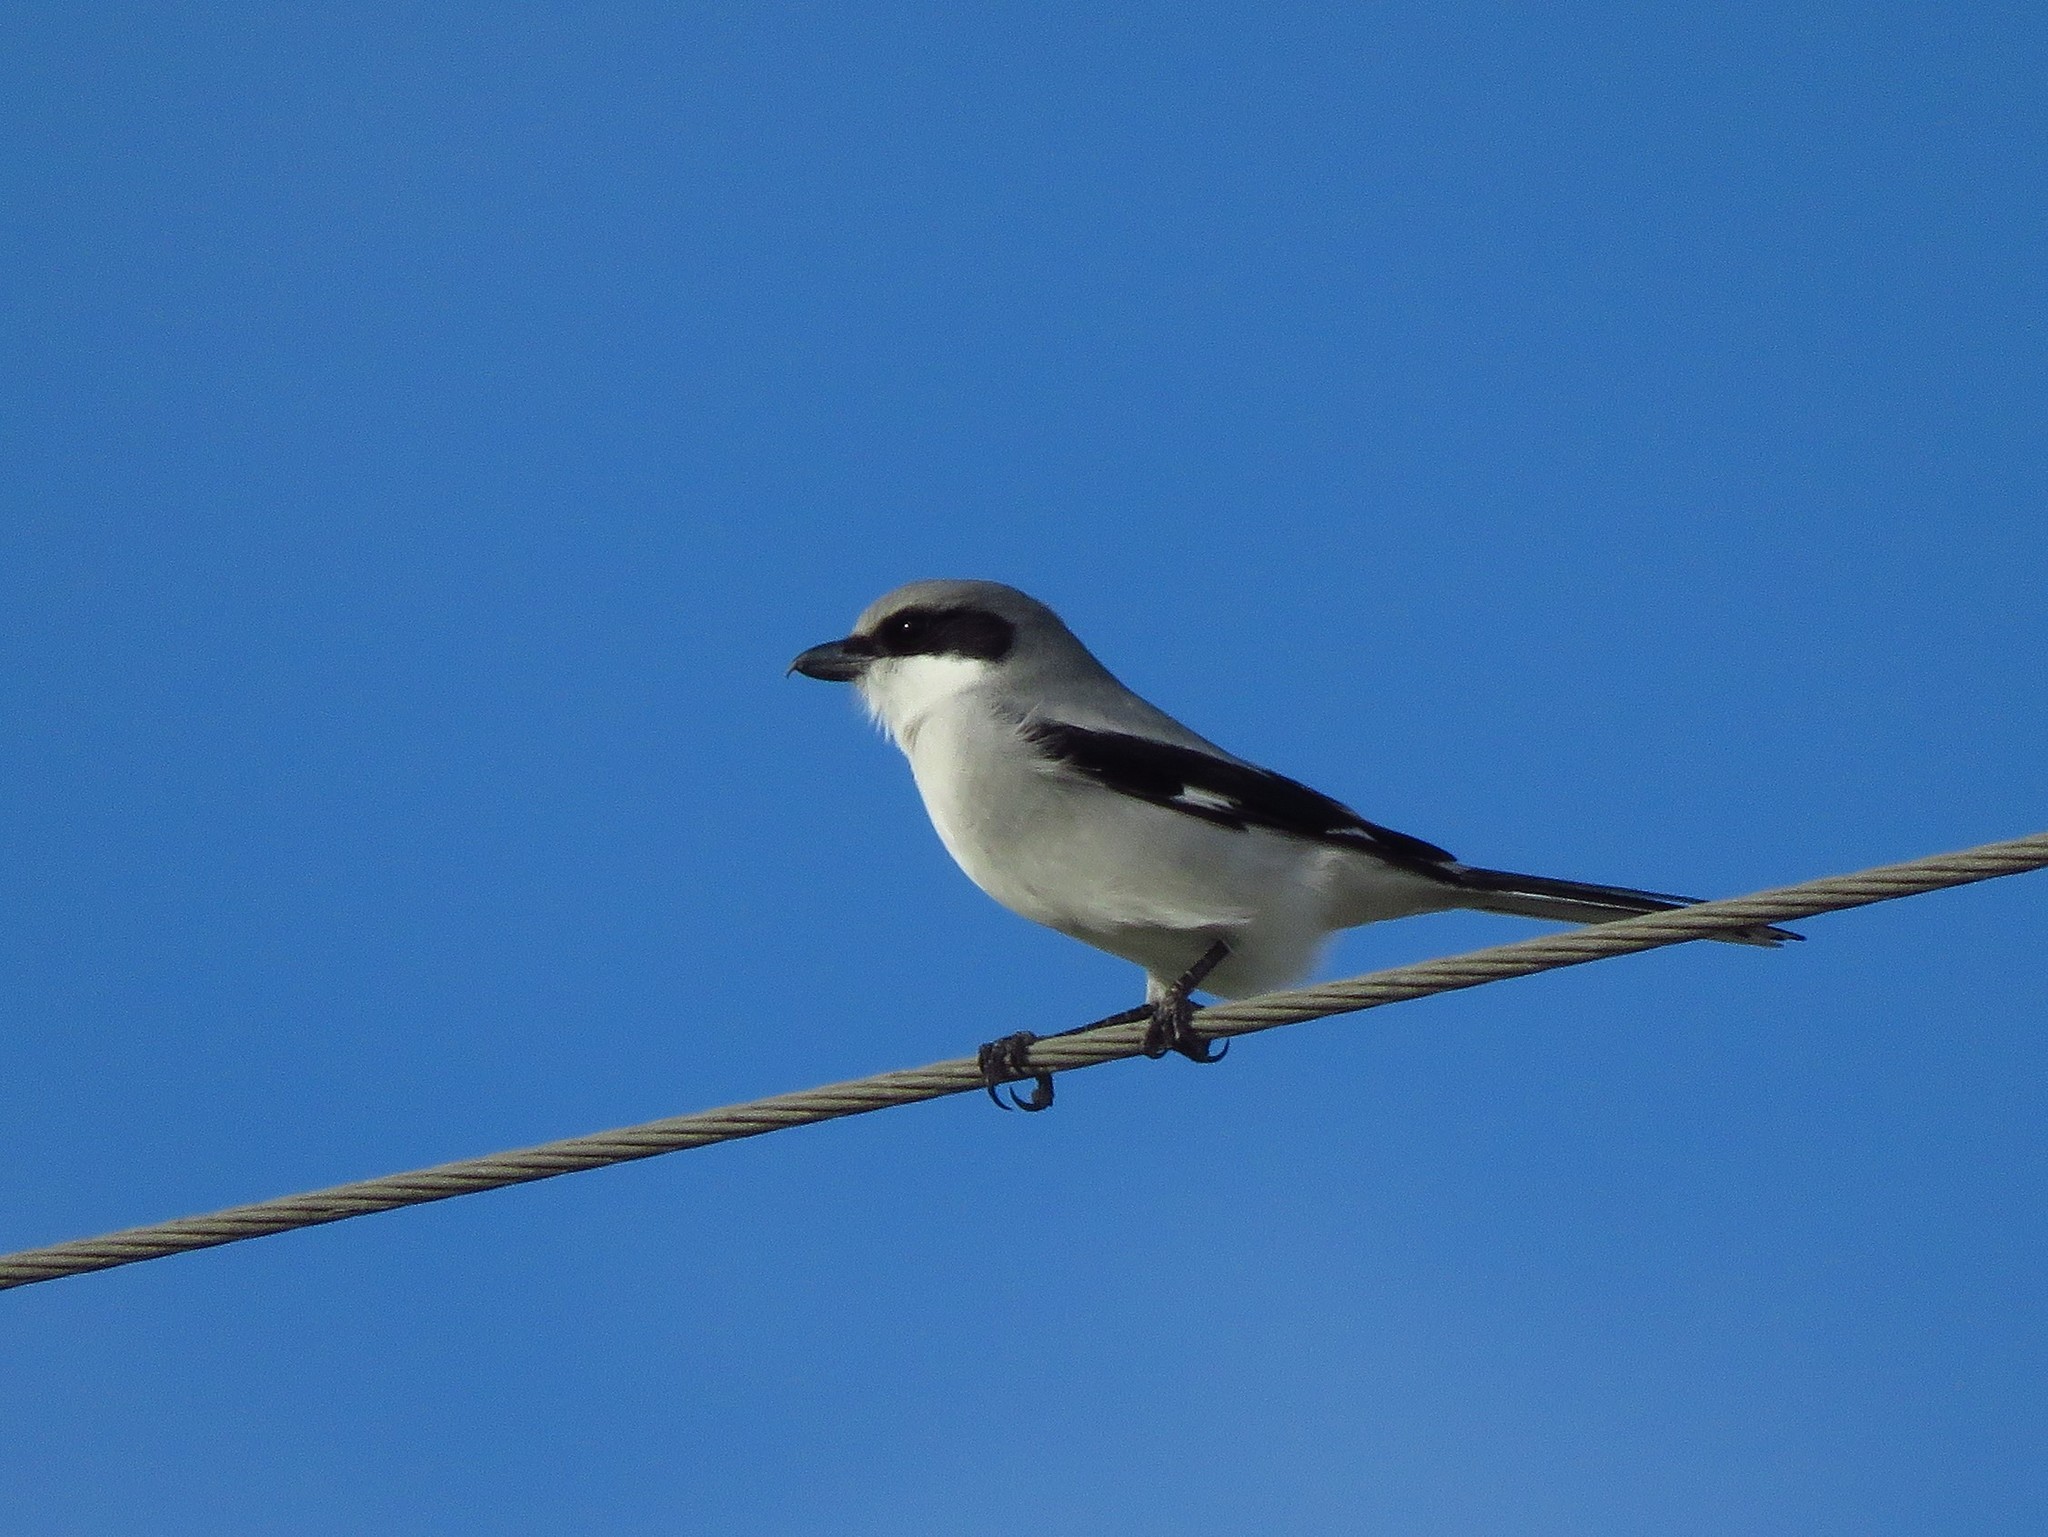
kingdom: Animalia
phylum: Chordata
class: Aves
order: Passeriformes
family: Laniidae
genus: Lanius
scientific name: Lanius ludovicianus
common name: Loggerhead shrike
